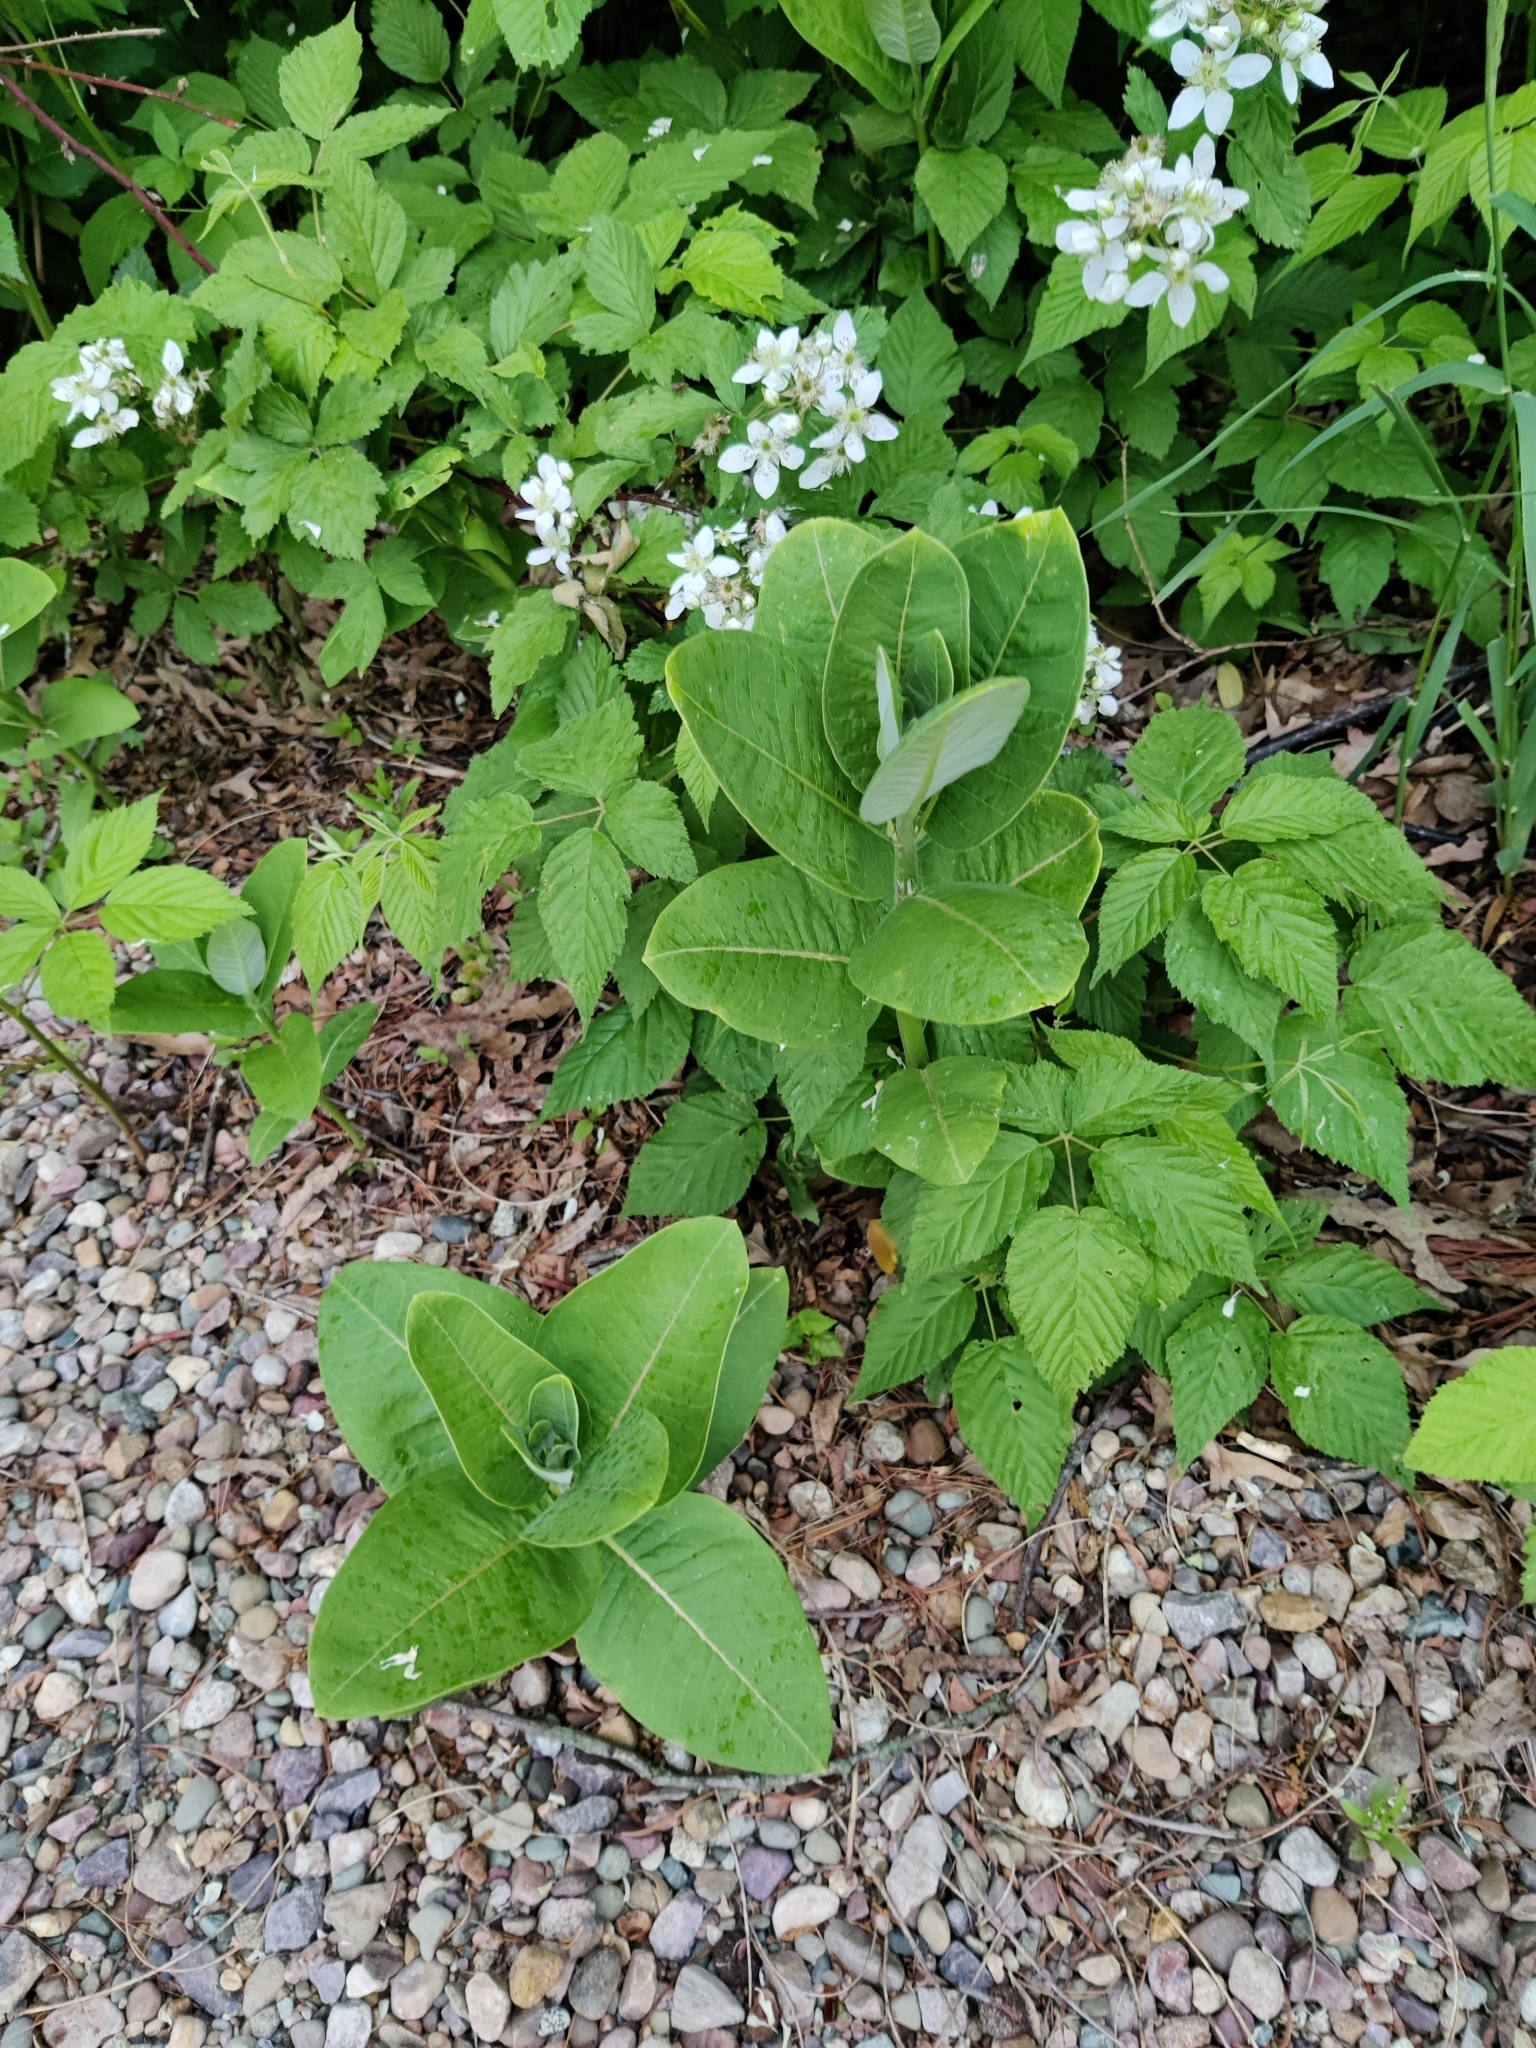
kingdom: Plantae
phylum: Tracheophyta
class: Magnoliopsida
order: Fabales
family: Fabaceae
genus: Robinia
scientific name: Robinia pseudoacacia
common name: Black locust
